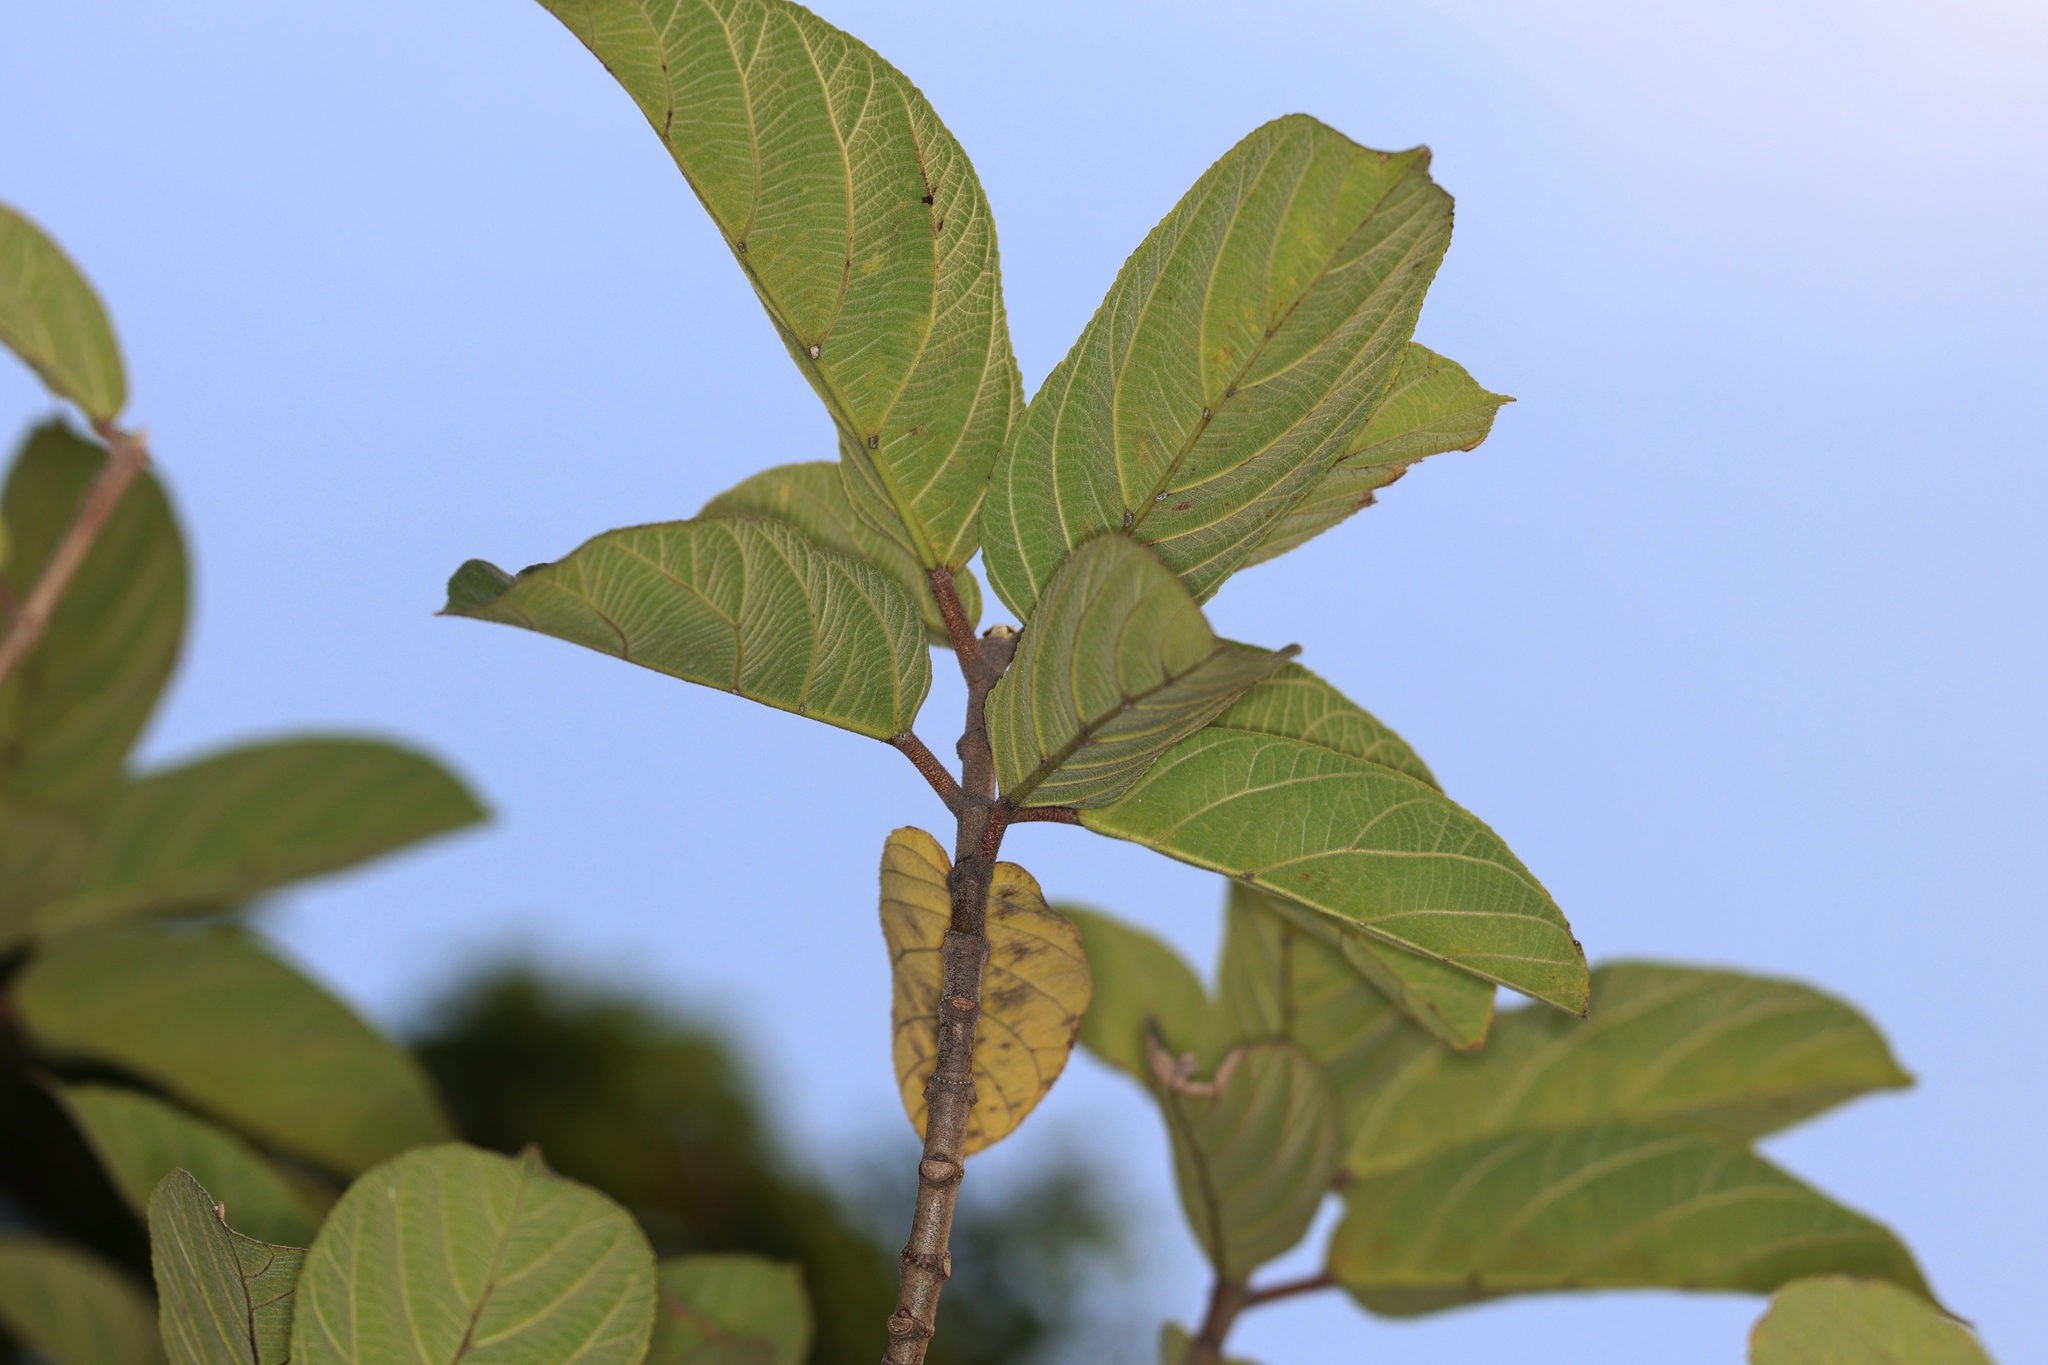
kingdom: Plantae
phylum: Tracheophyta
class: Magnoliopsida
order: Rosales
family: Moraceae
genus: Ficus
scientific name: Ficus hispida
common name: Hairy fig
